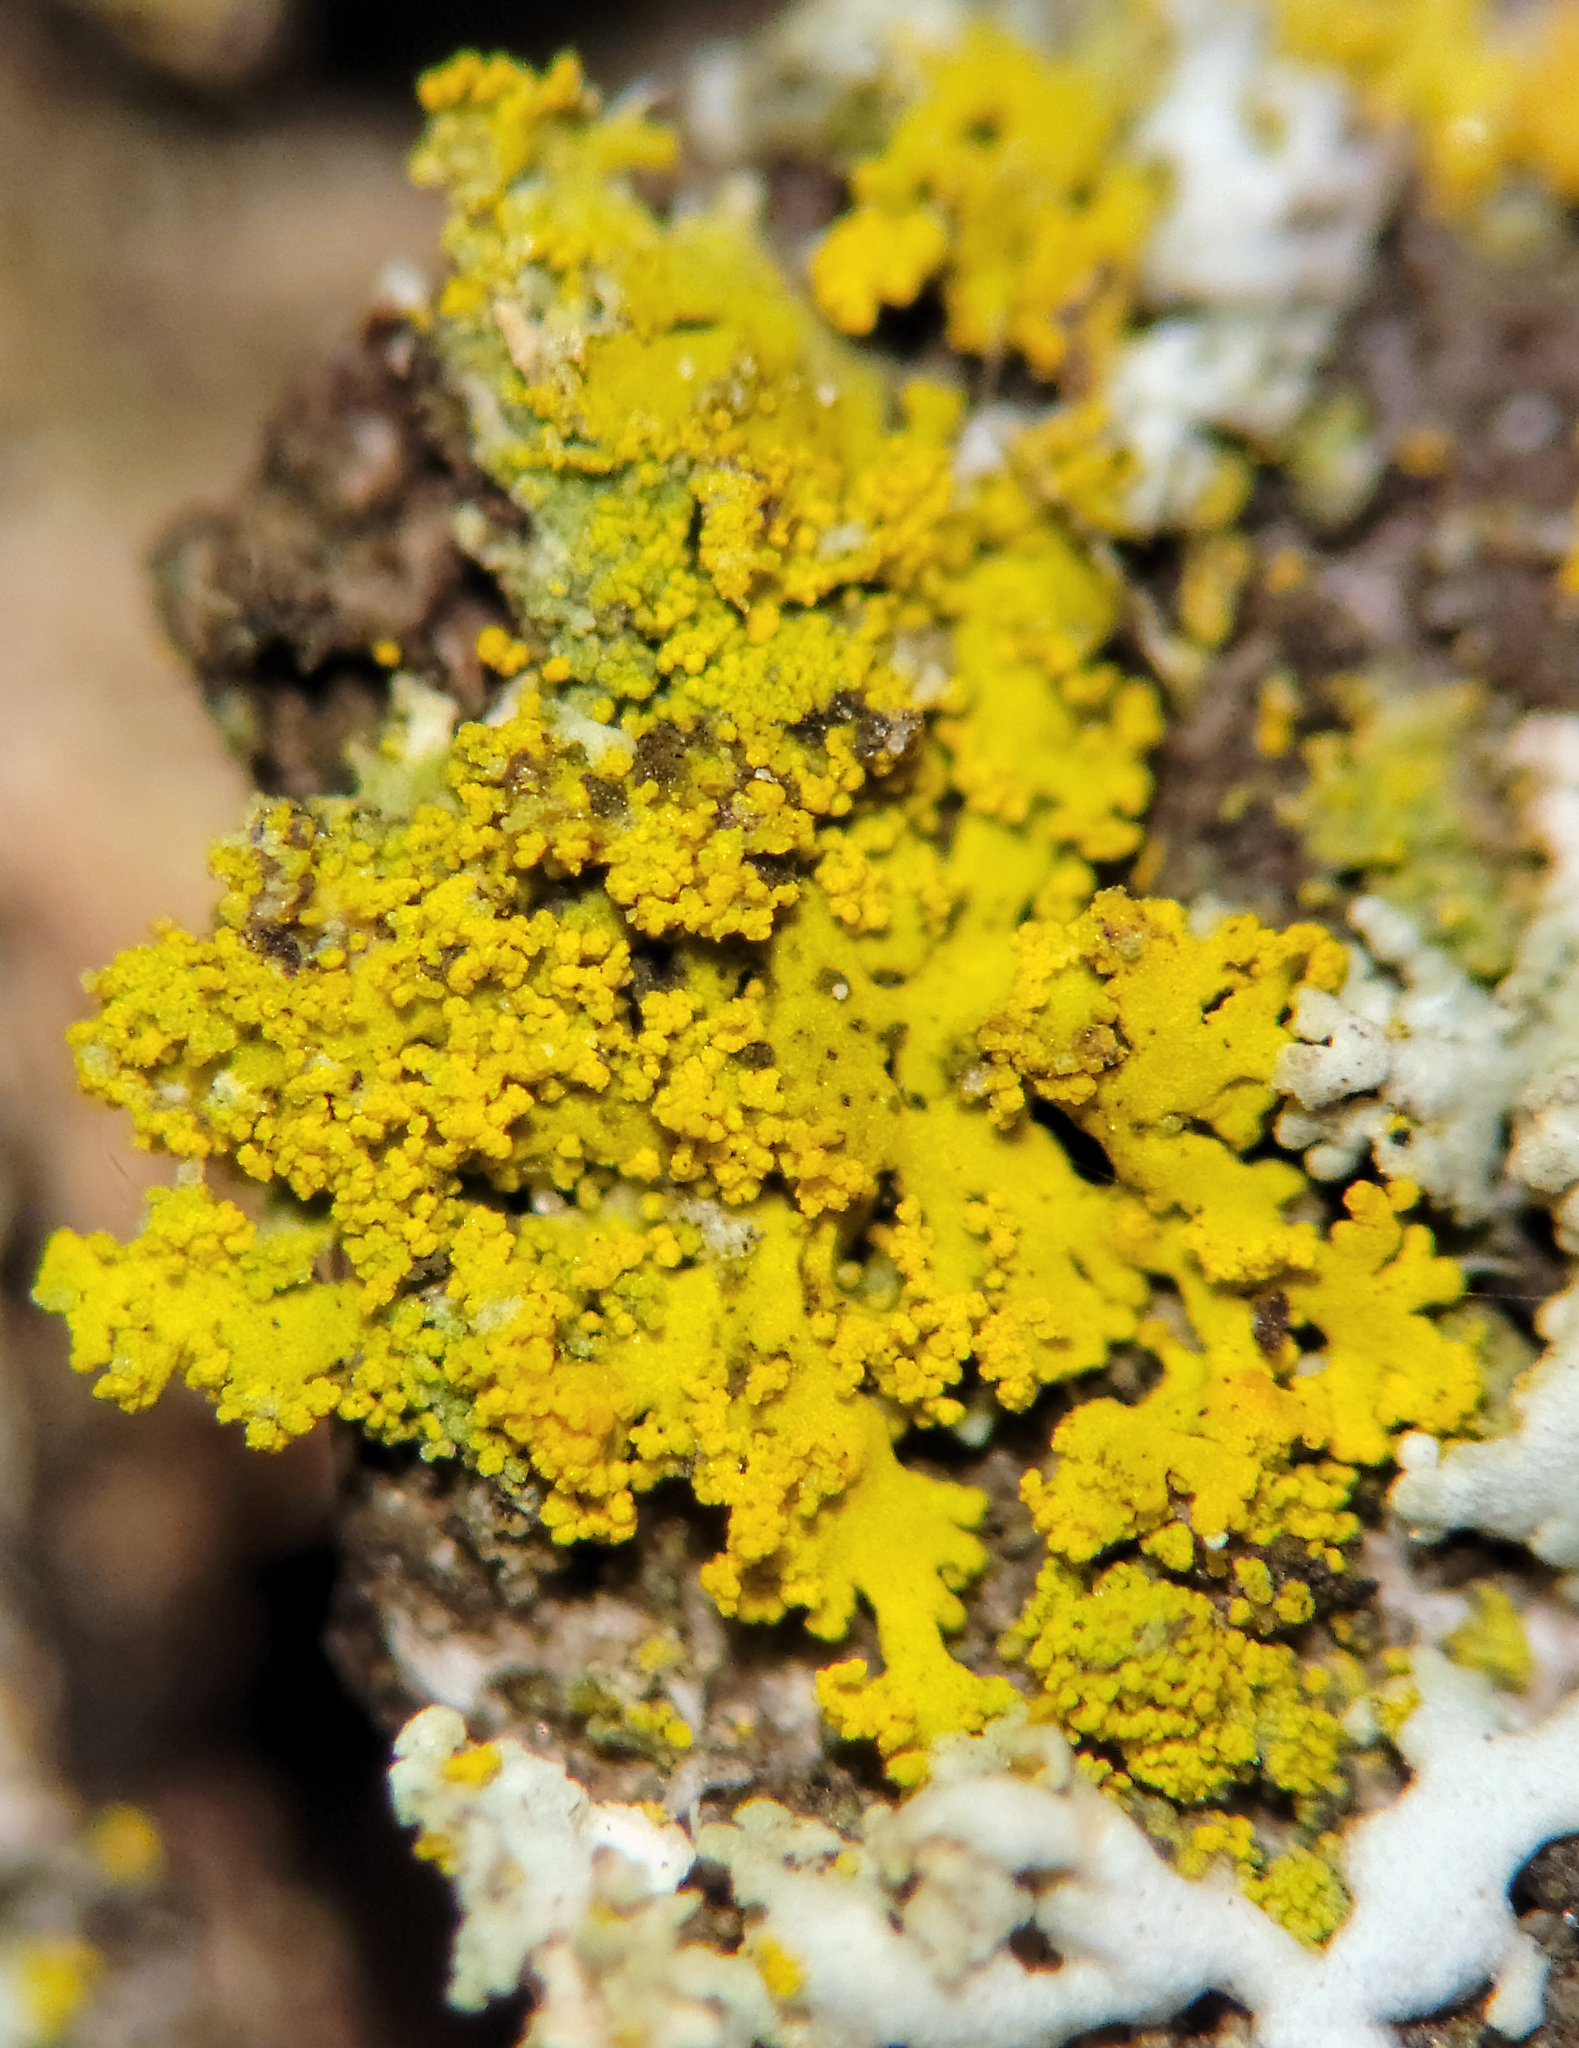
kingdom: Fungi
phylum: Ascomycota
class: Candelariomycetes
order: Candelariales
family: Candelariaceae
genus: Candelaria
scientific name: Candelaria concolor
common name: Candleflame lichen
